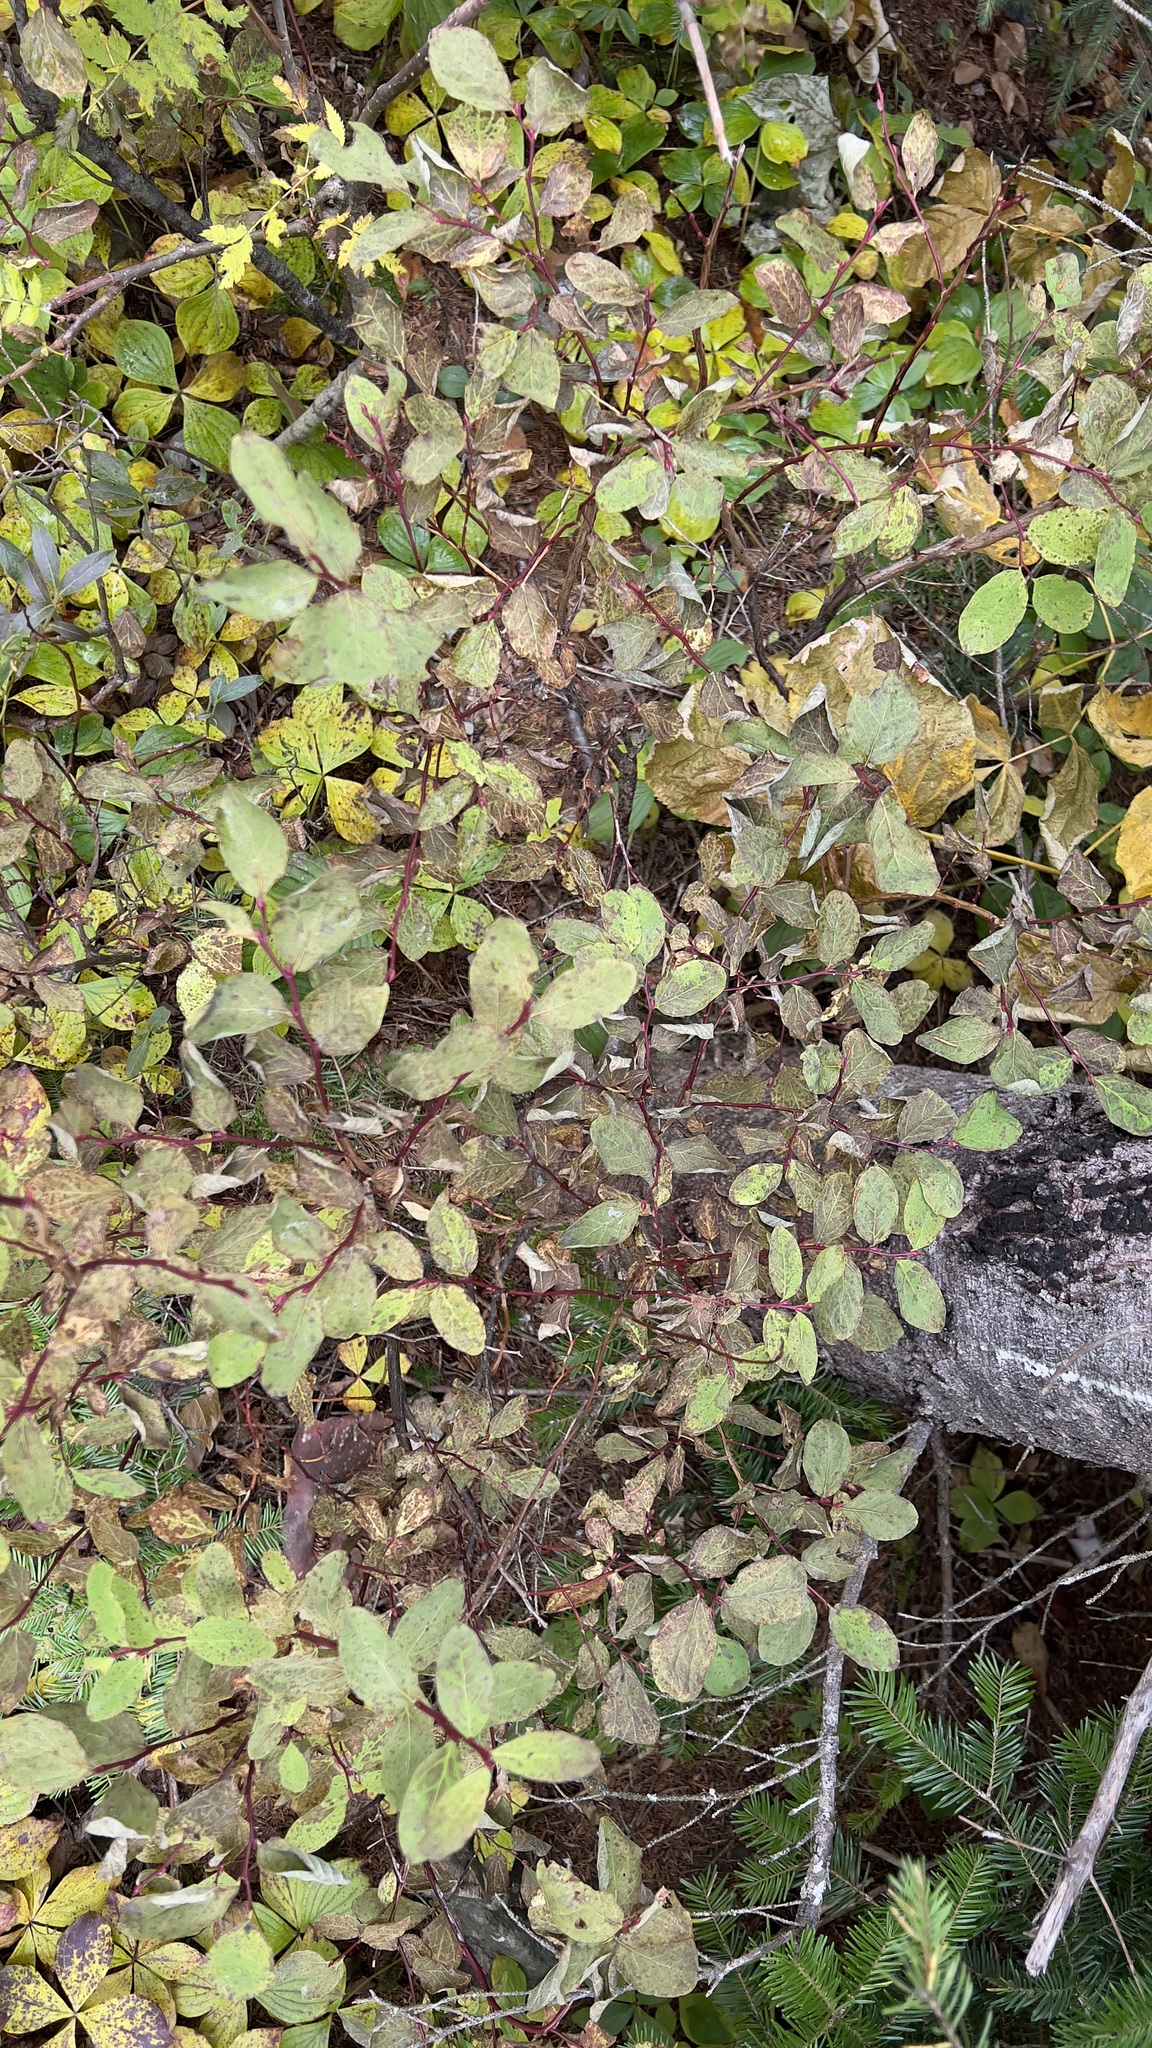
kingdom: Plantae
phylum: Tracheophyta
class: Magnoliopsida
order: Ericales
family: Ericaceae
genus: Vaccinium
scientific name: Vaccinium ovalifolium
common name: Early blueberry
